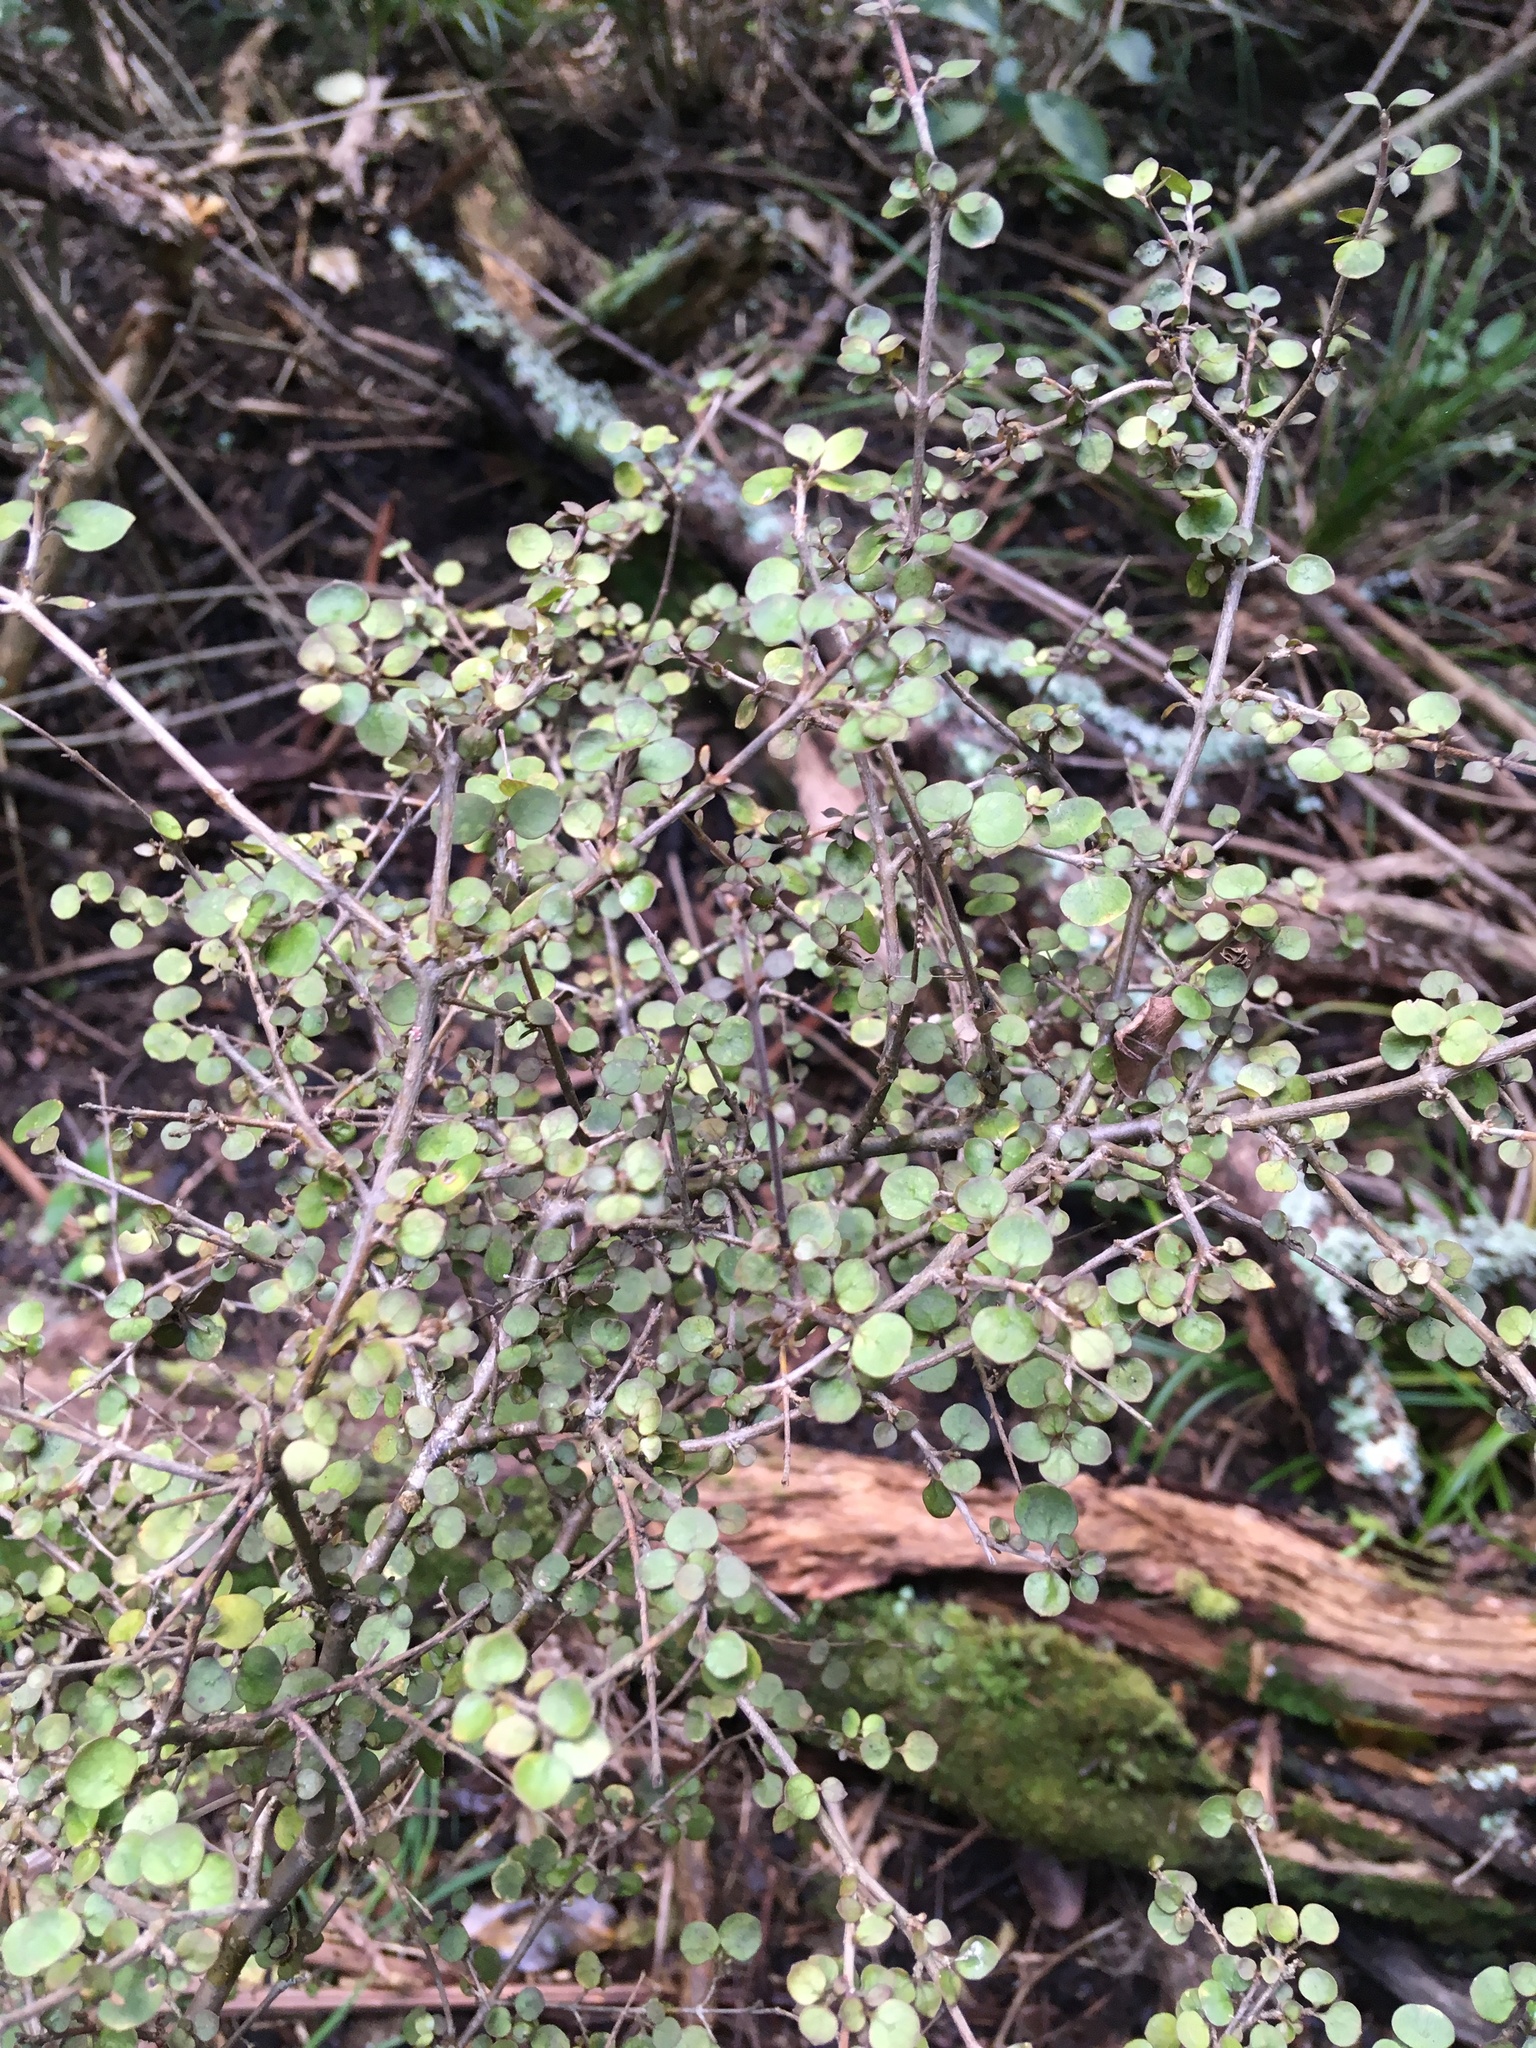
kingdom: Plantae
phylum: Tracheophyta
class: Magnoliopsida
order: Gentianales
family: Rubiaceae
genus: Coprosma
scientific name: Coprosma rhamnoides
